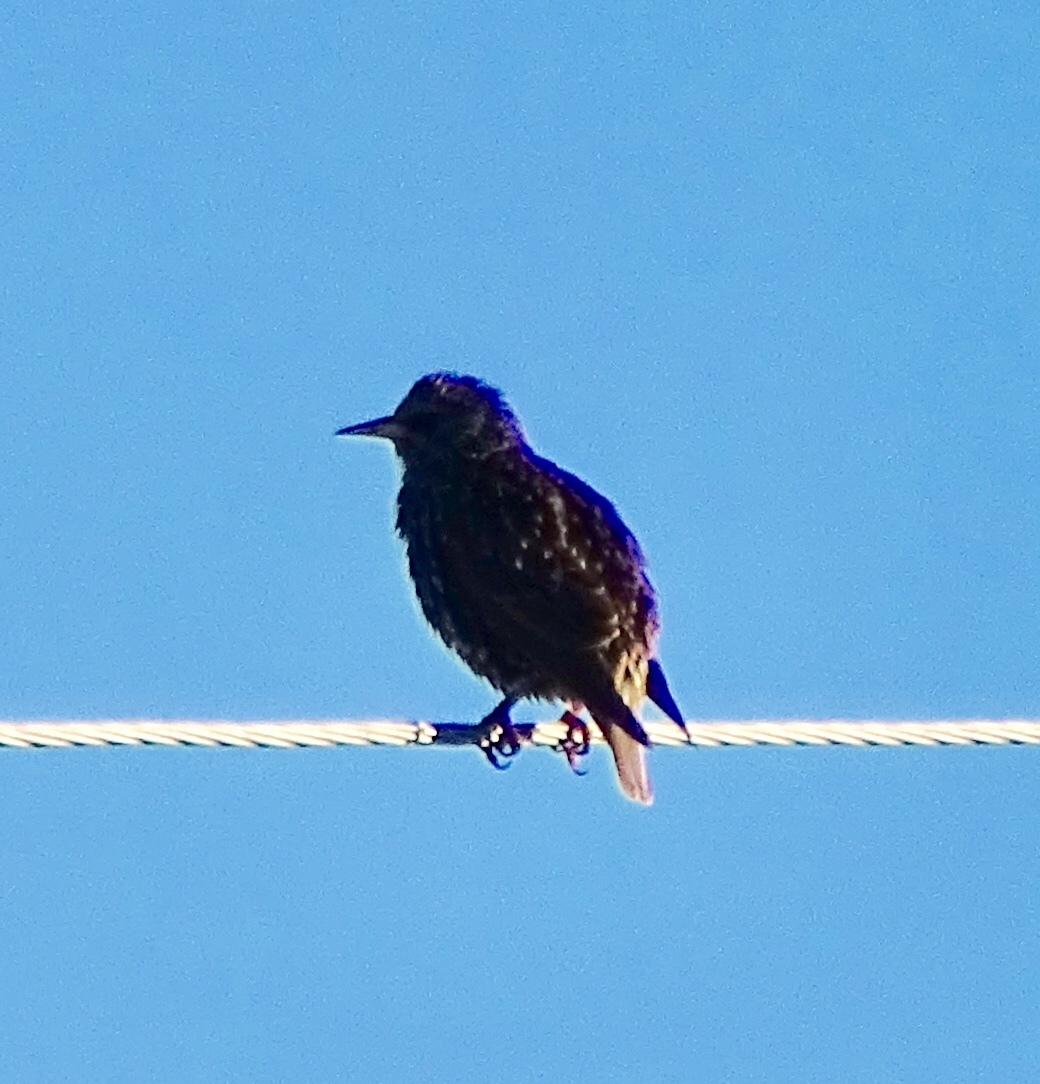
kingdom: Animalia
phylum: Chordata
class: Aves
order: Passeriformes
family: Sturnidae
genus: Sturnus
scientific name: Sturnus vulgaris
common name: Common starling
